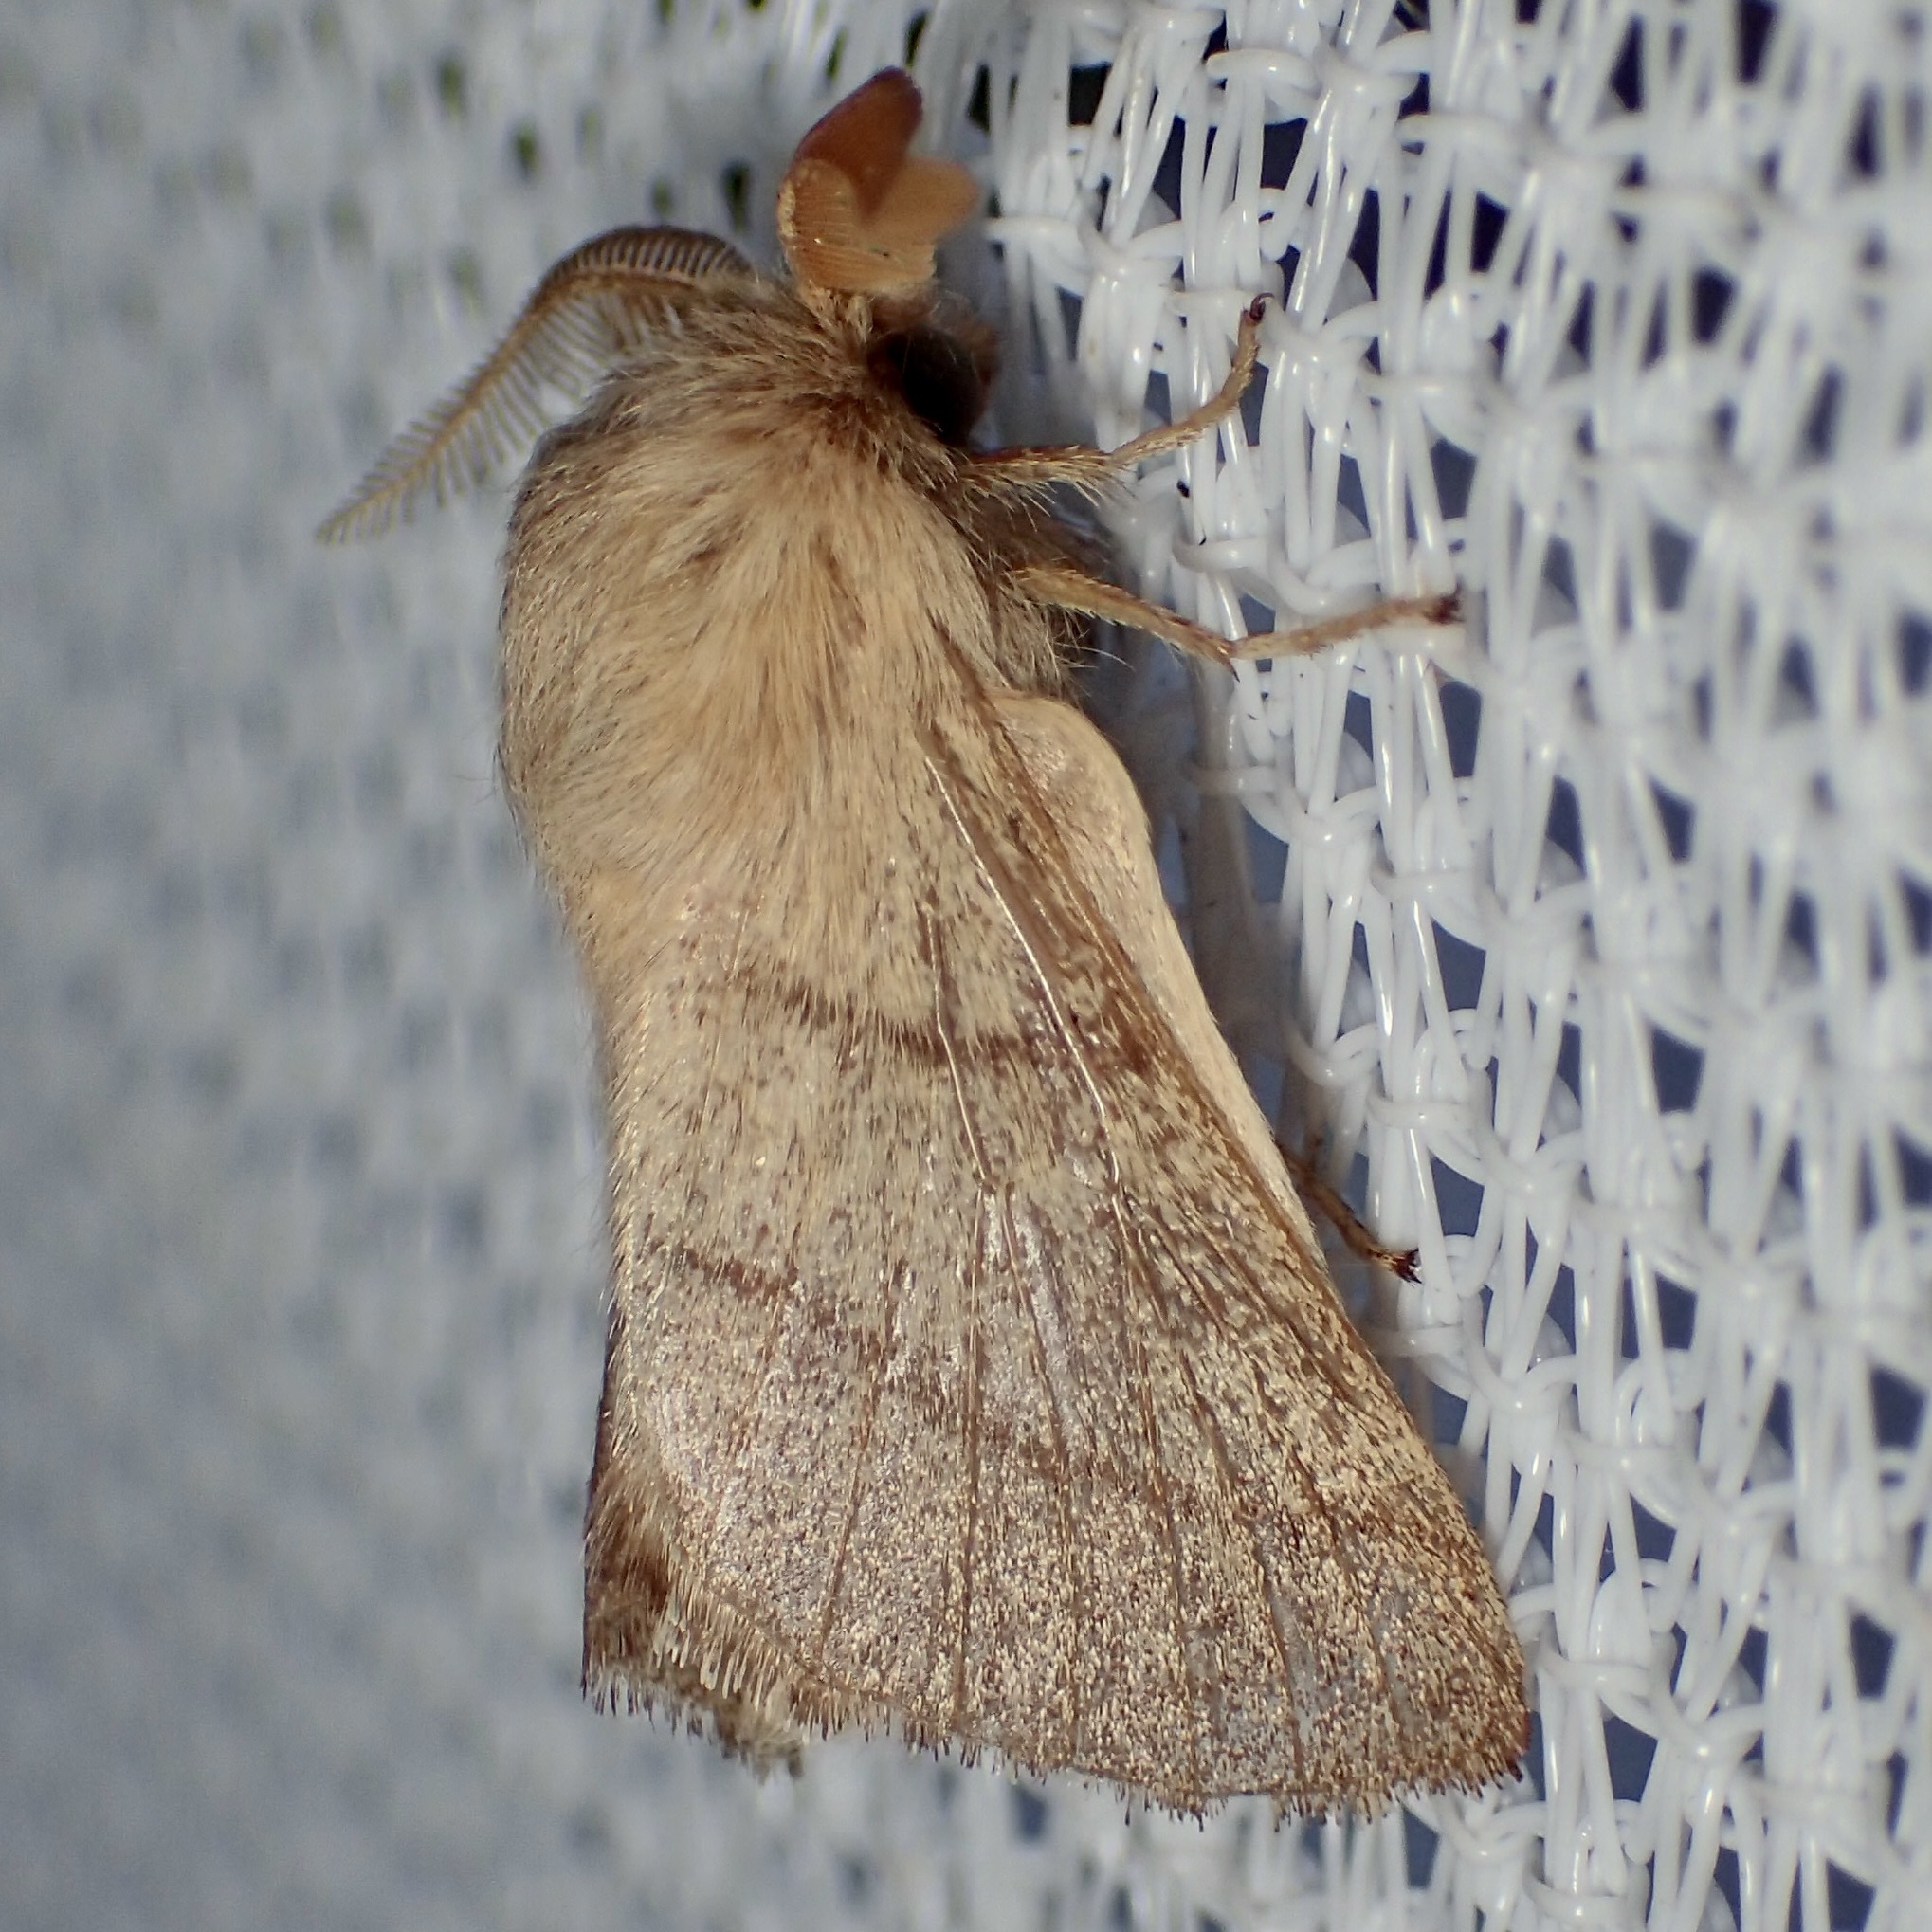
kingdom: Animalia
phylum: Arthropoda
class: Insecta
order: Lepidoptera
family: Lasiocampidae
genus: Malacosoma
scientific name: Malacosoma incurva
